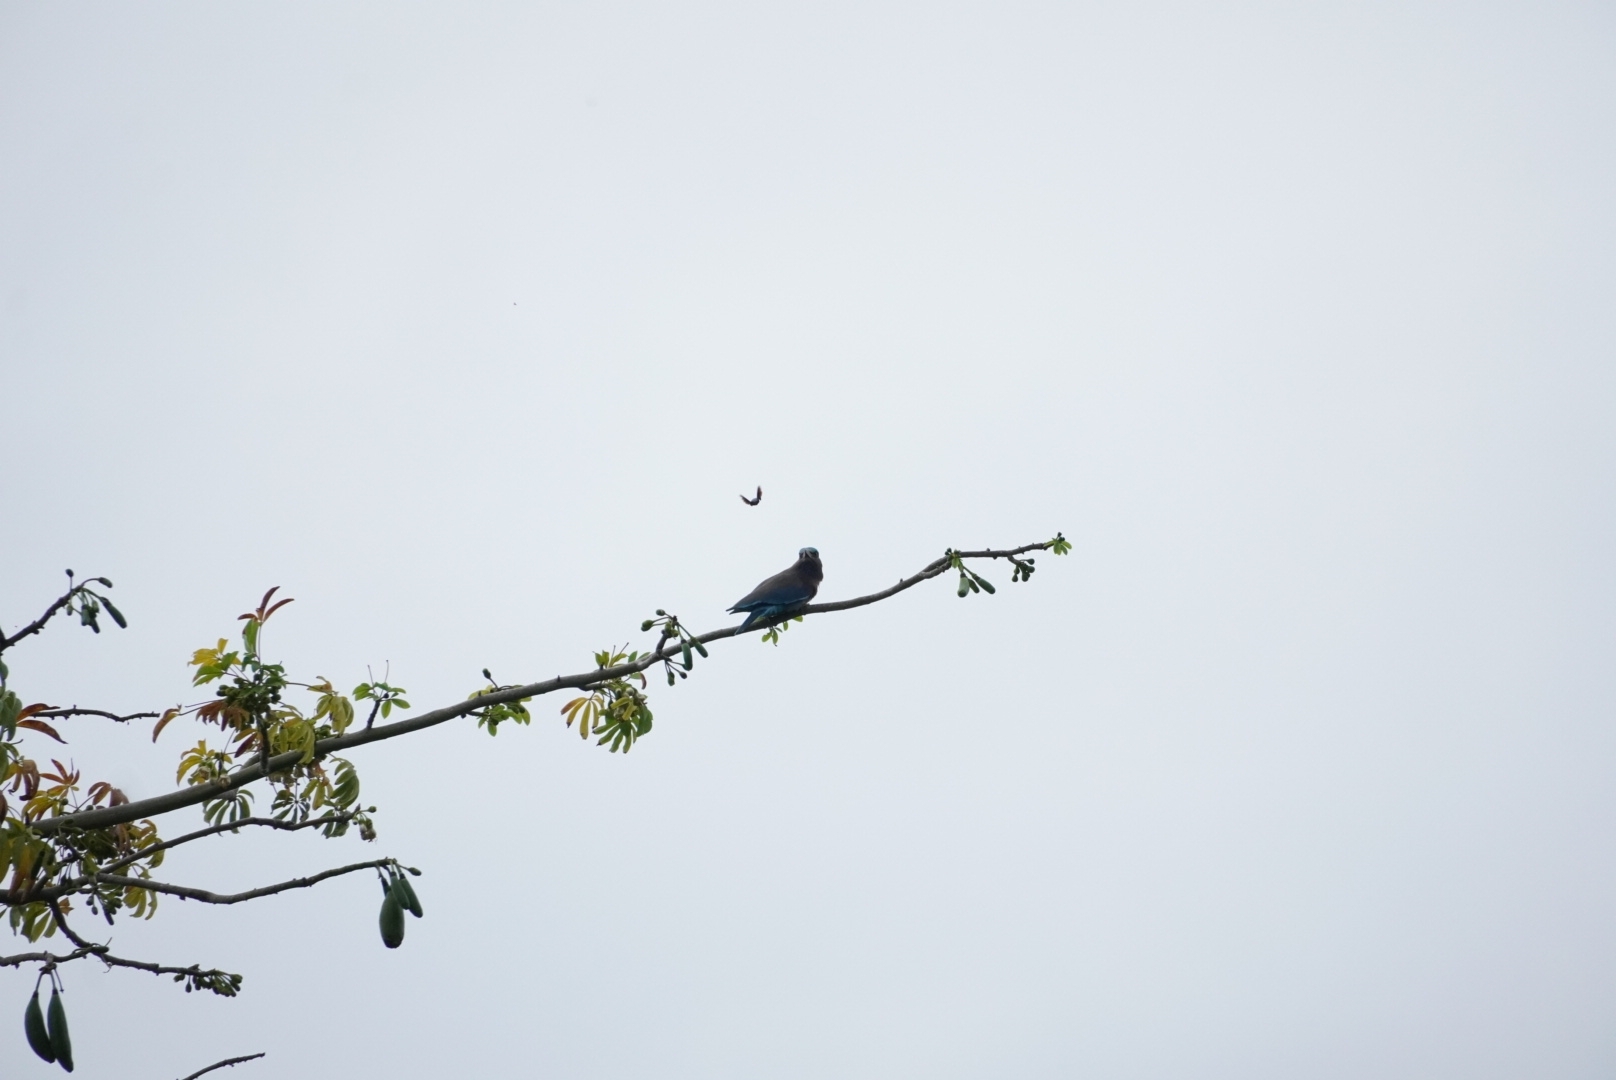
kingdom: Animalia
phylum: Chordata
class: Aves
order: Coraciiformes
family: Coraciidae
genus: Coracias
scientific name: Coracias affinis
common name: Indochinese roller
